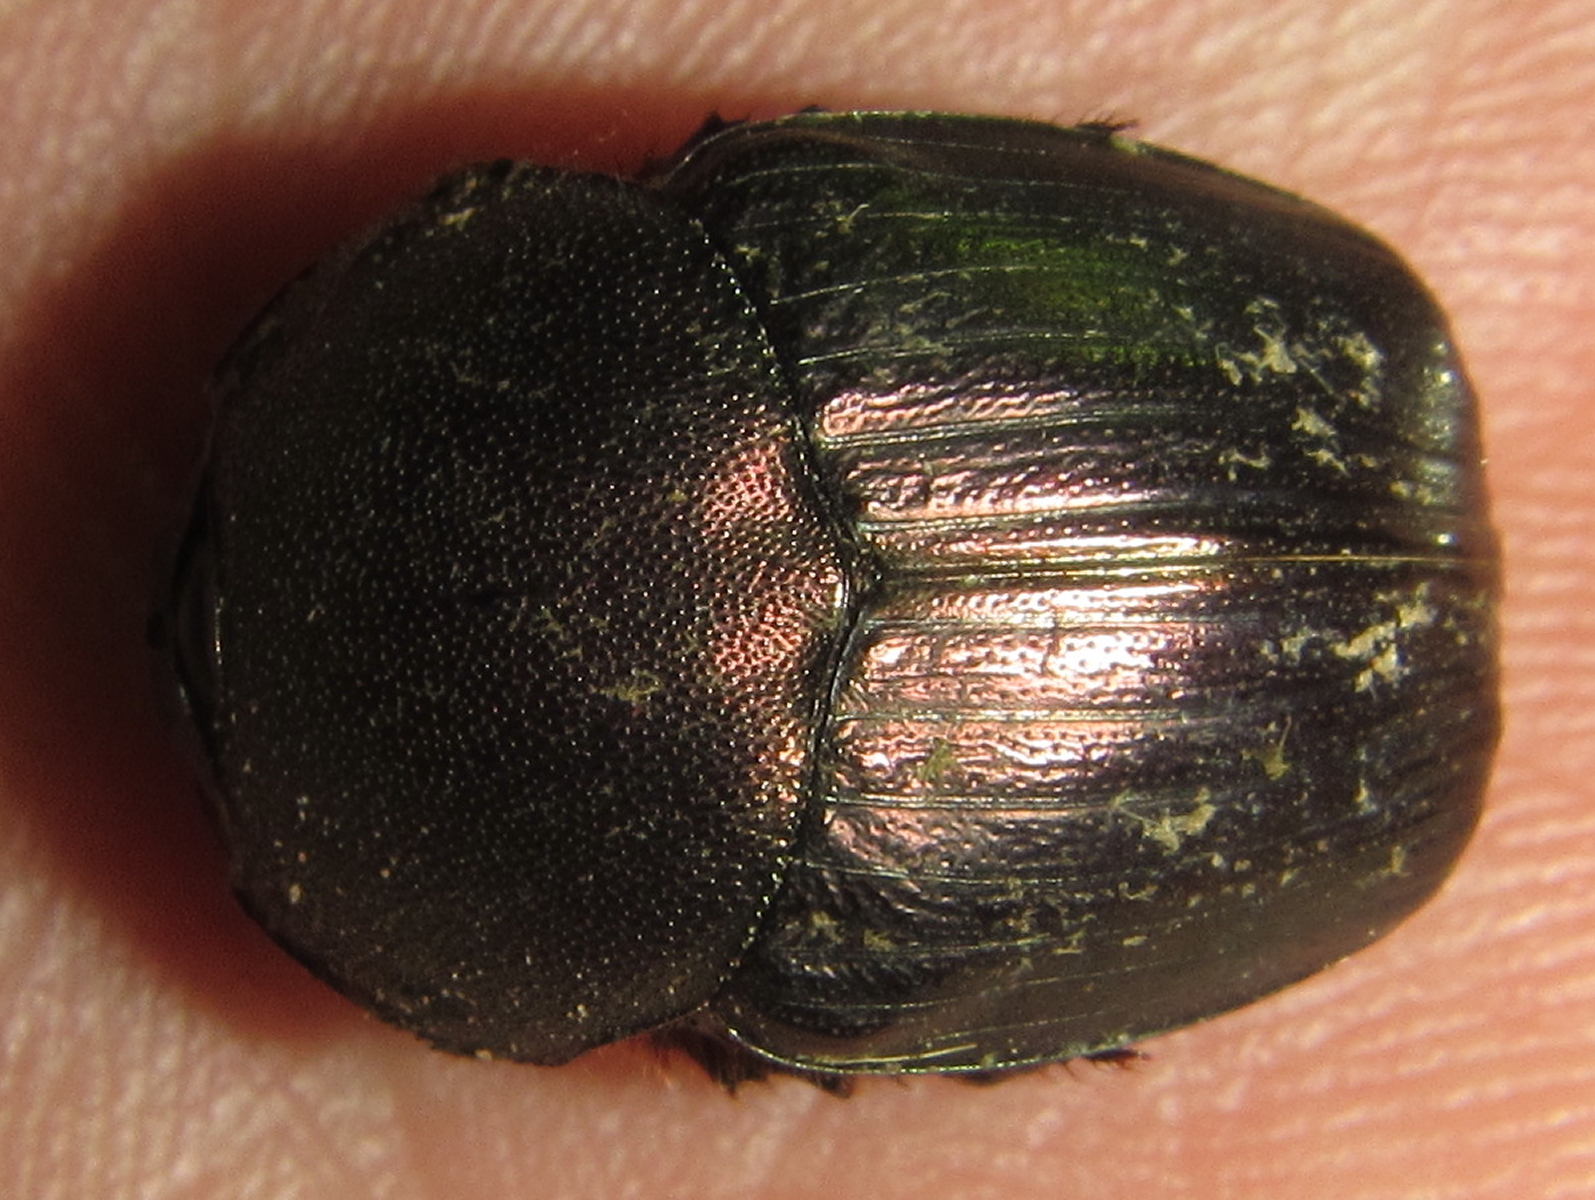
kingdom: Animalia
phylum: Arthropoda
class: Insecta
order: Coleoptera
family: Scarabaeidae
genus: Onitis
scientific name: Onitis fulgidus
